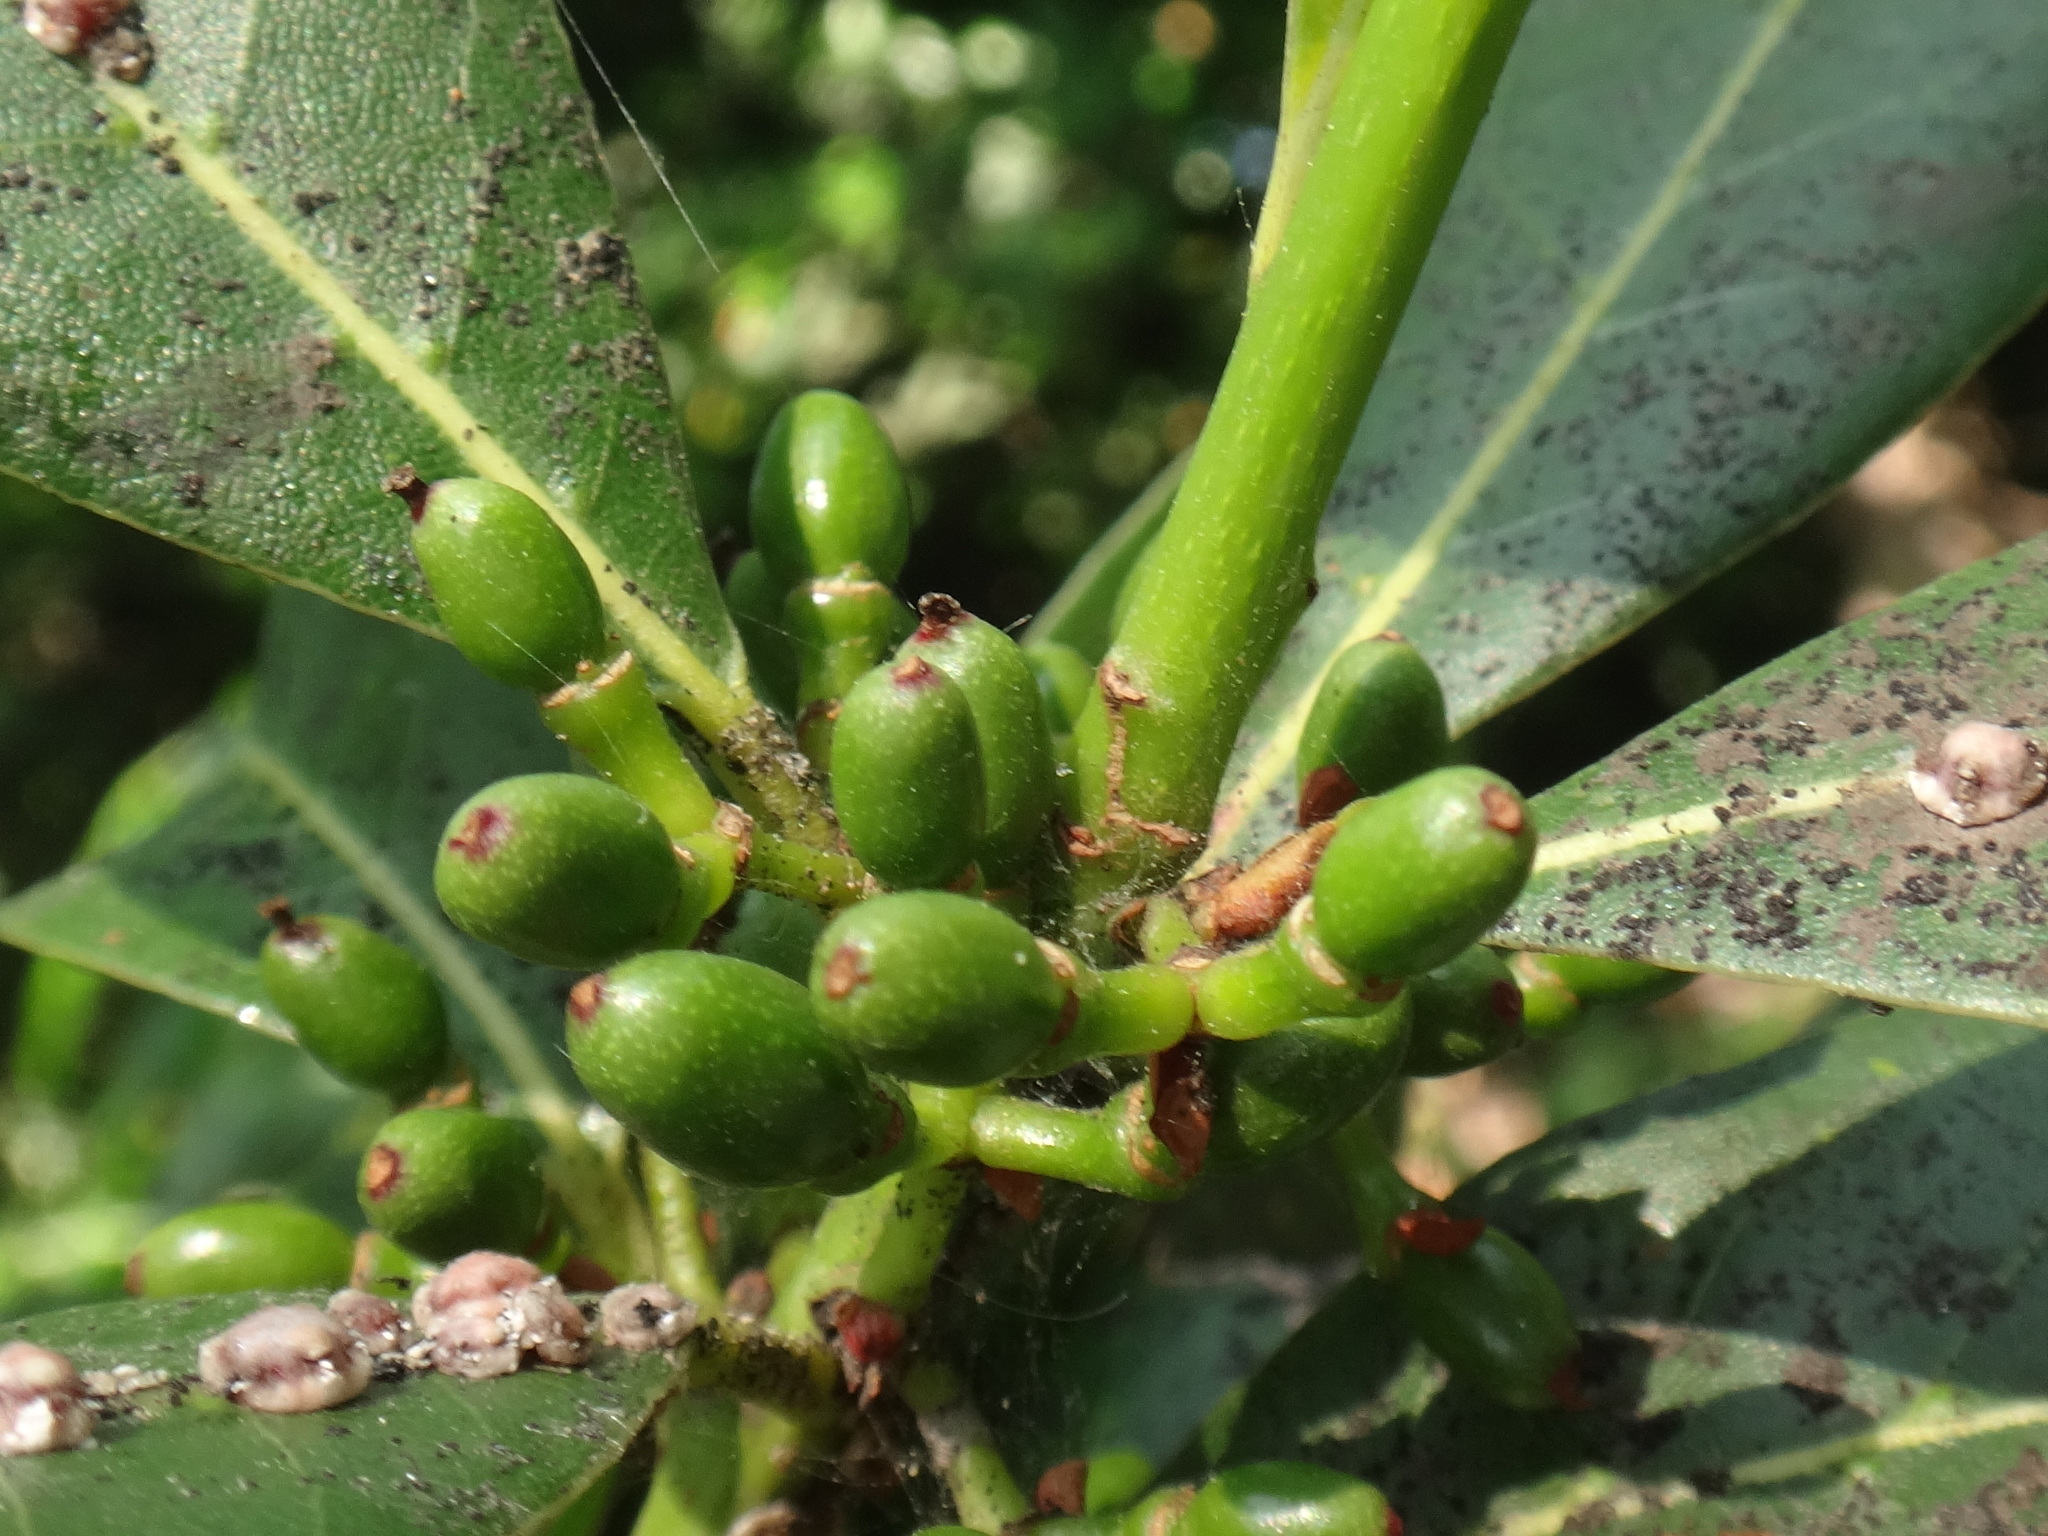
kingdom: Plantae
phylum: Tracheophyta
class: Magnoliopsida
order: Laurales
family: Lauraceae
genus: Laurus
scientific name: Laurus nobilis
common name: Bay
